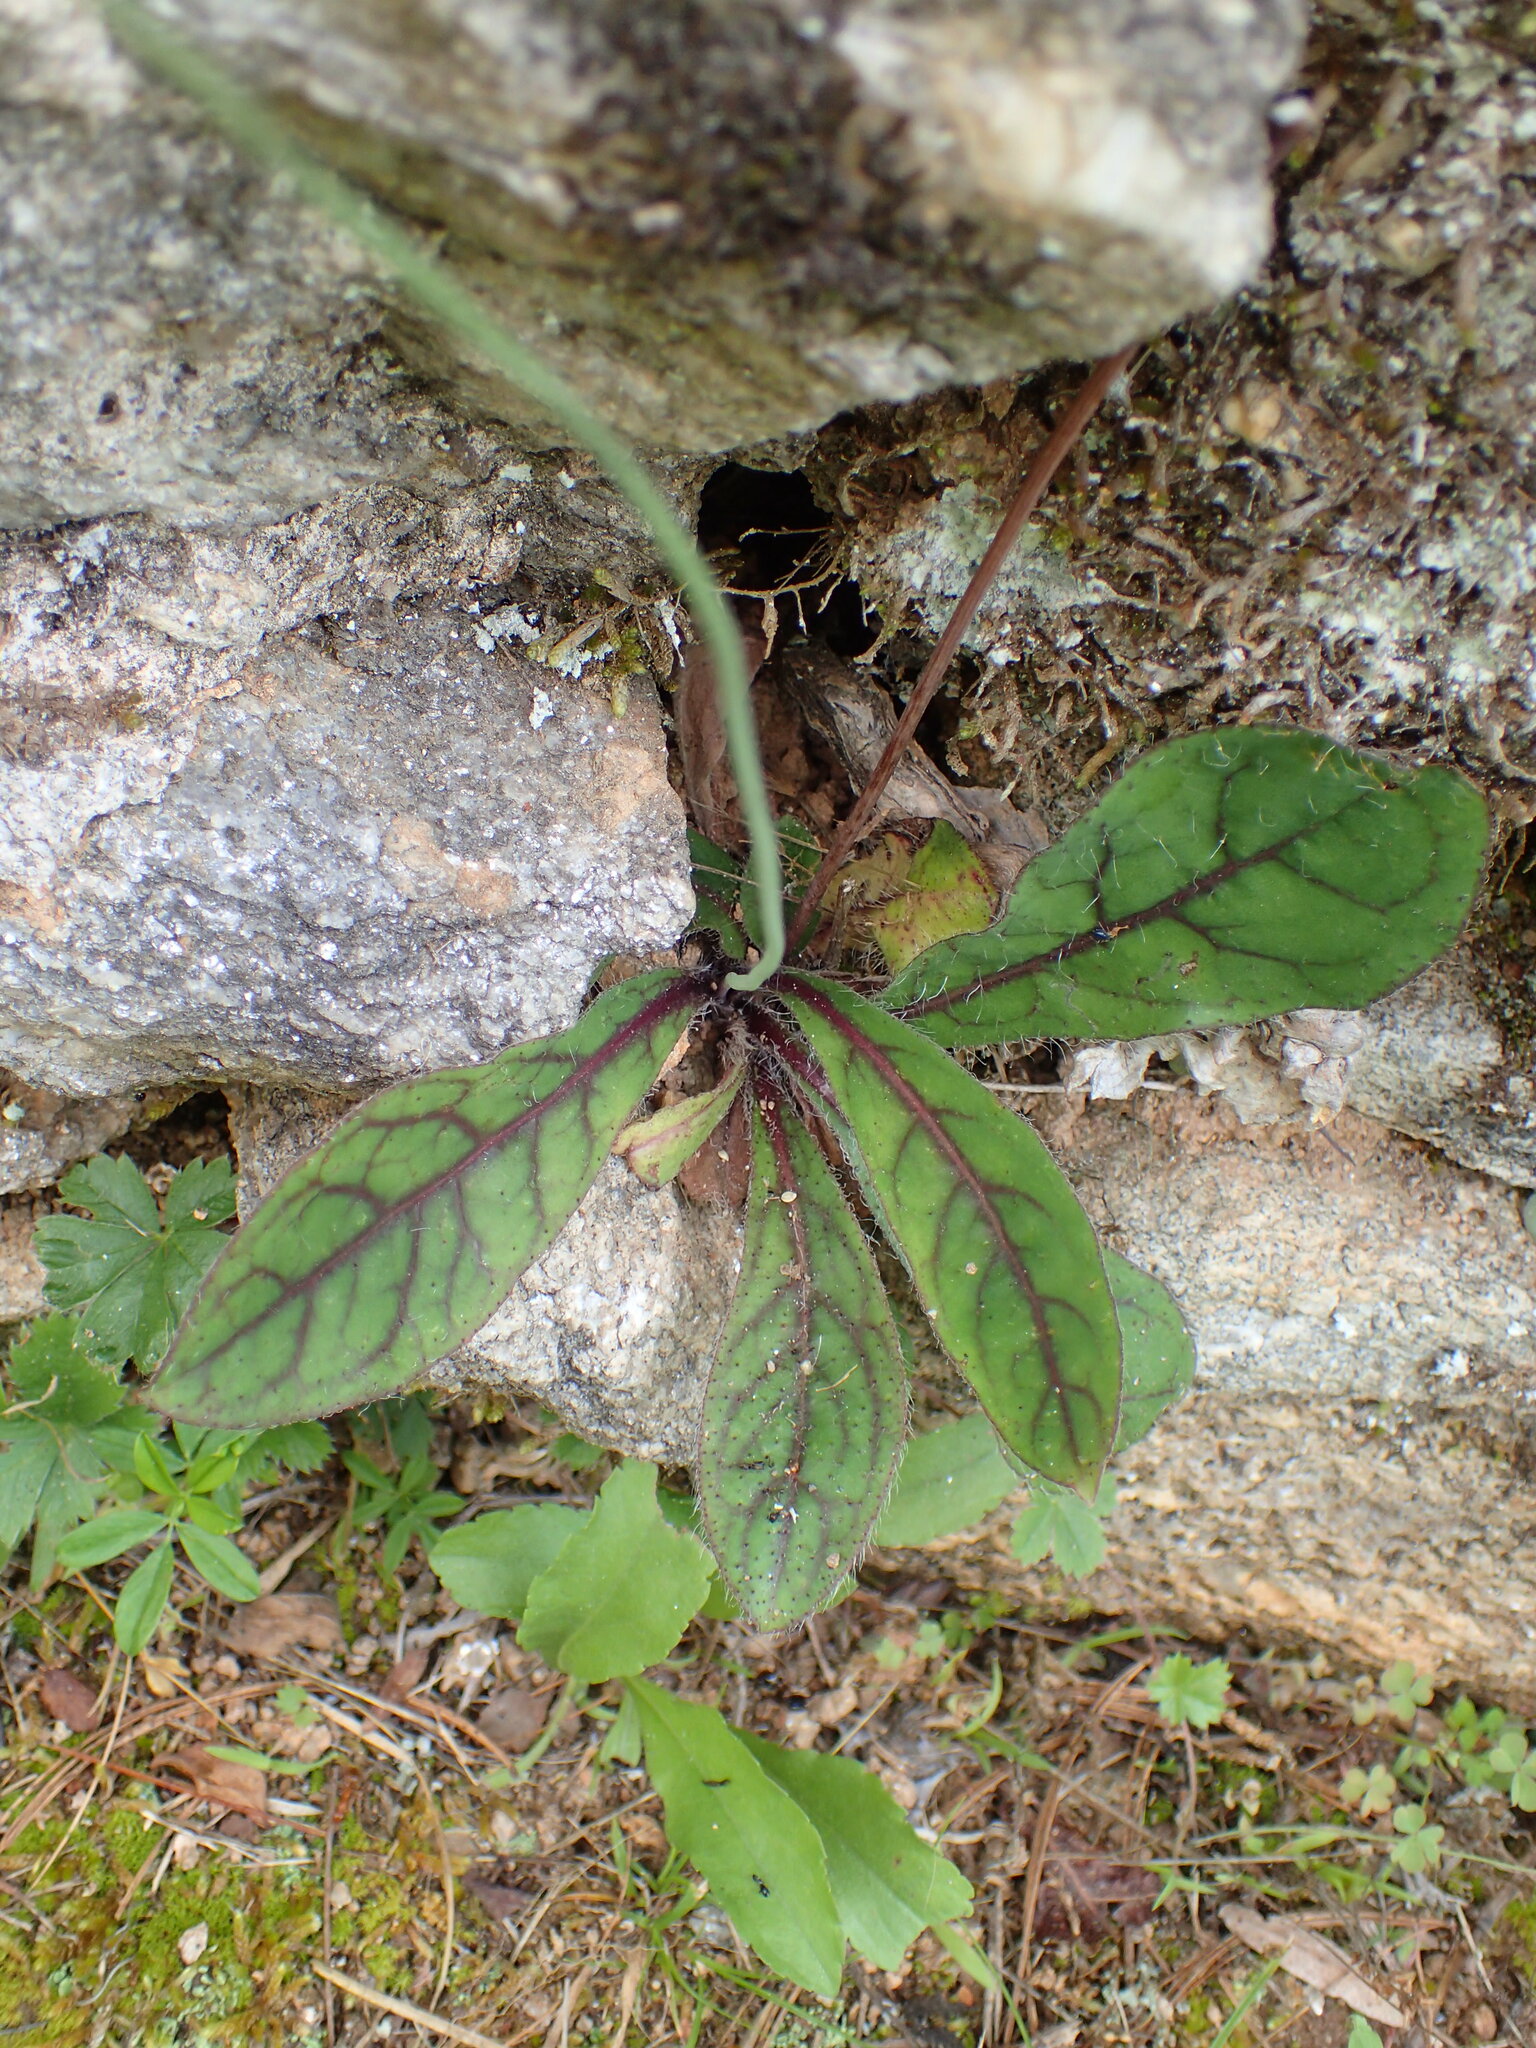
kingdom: Plantae
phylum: Tracheophyta
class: Magnoliopsida
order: Asterales
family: Asteraceae
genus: Hieracium
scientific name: Hieracium venosum
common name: Rattlesnake hawkweed
